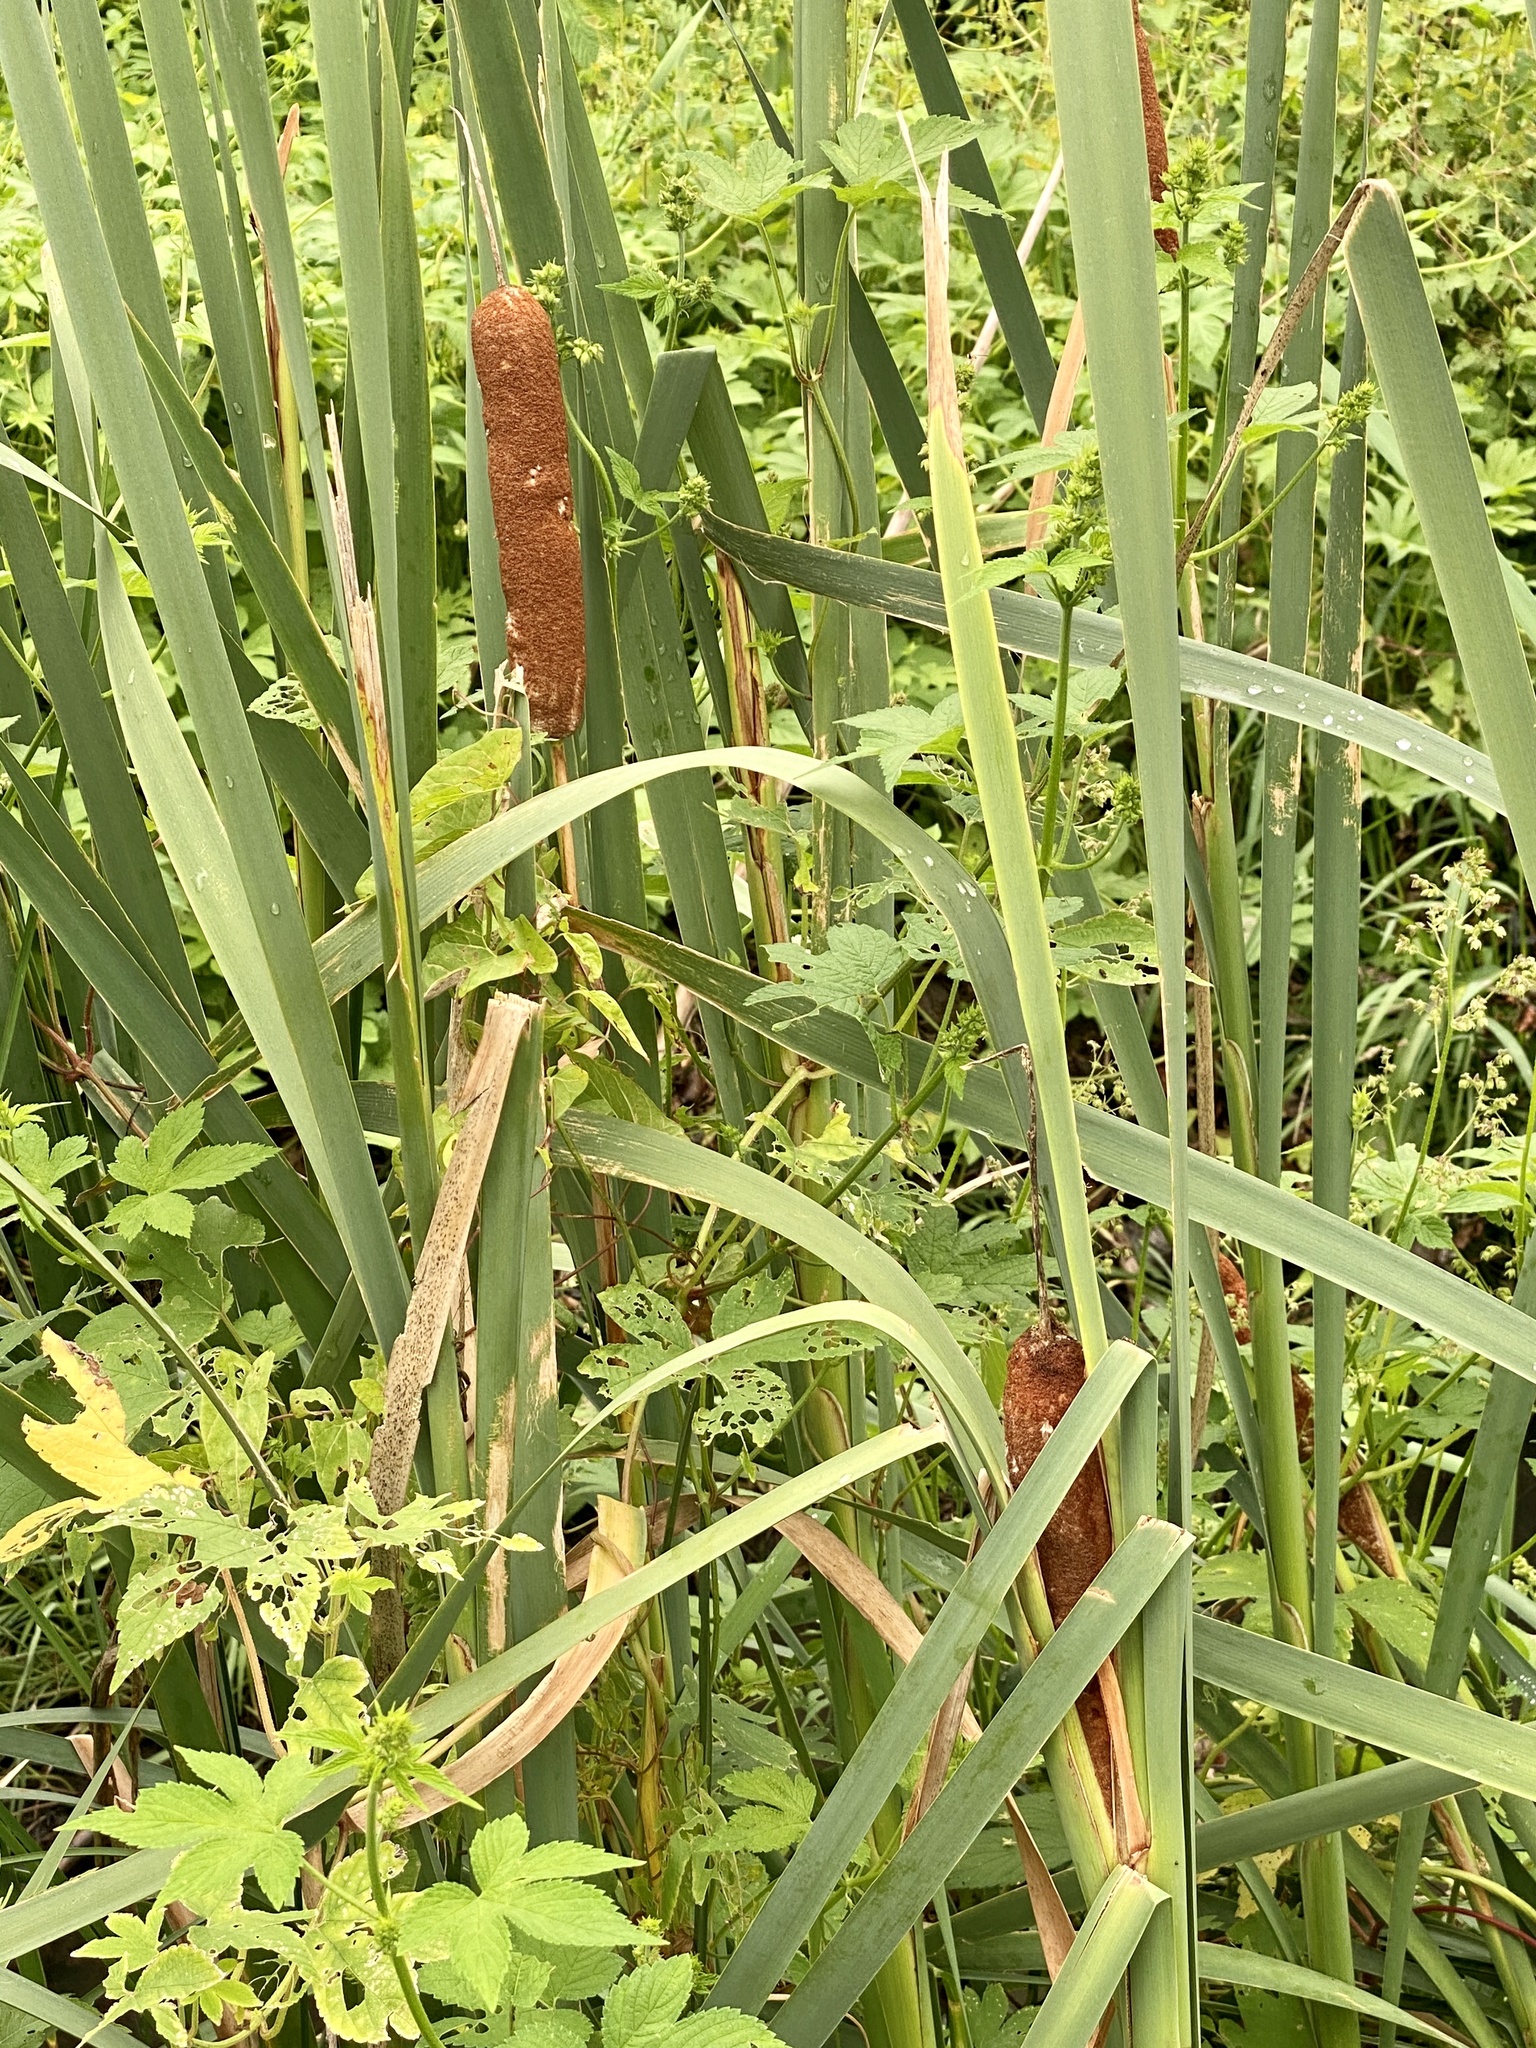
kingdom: Plantae
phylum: Tracheophyta
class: Liliopsida
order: Poales
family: Typhaceae
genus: Typha
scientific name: Typha latifolia
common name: Broadleaf cattail
